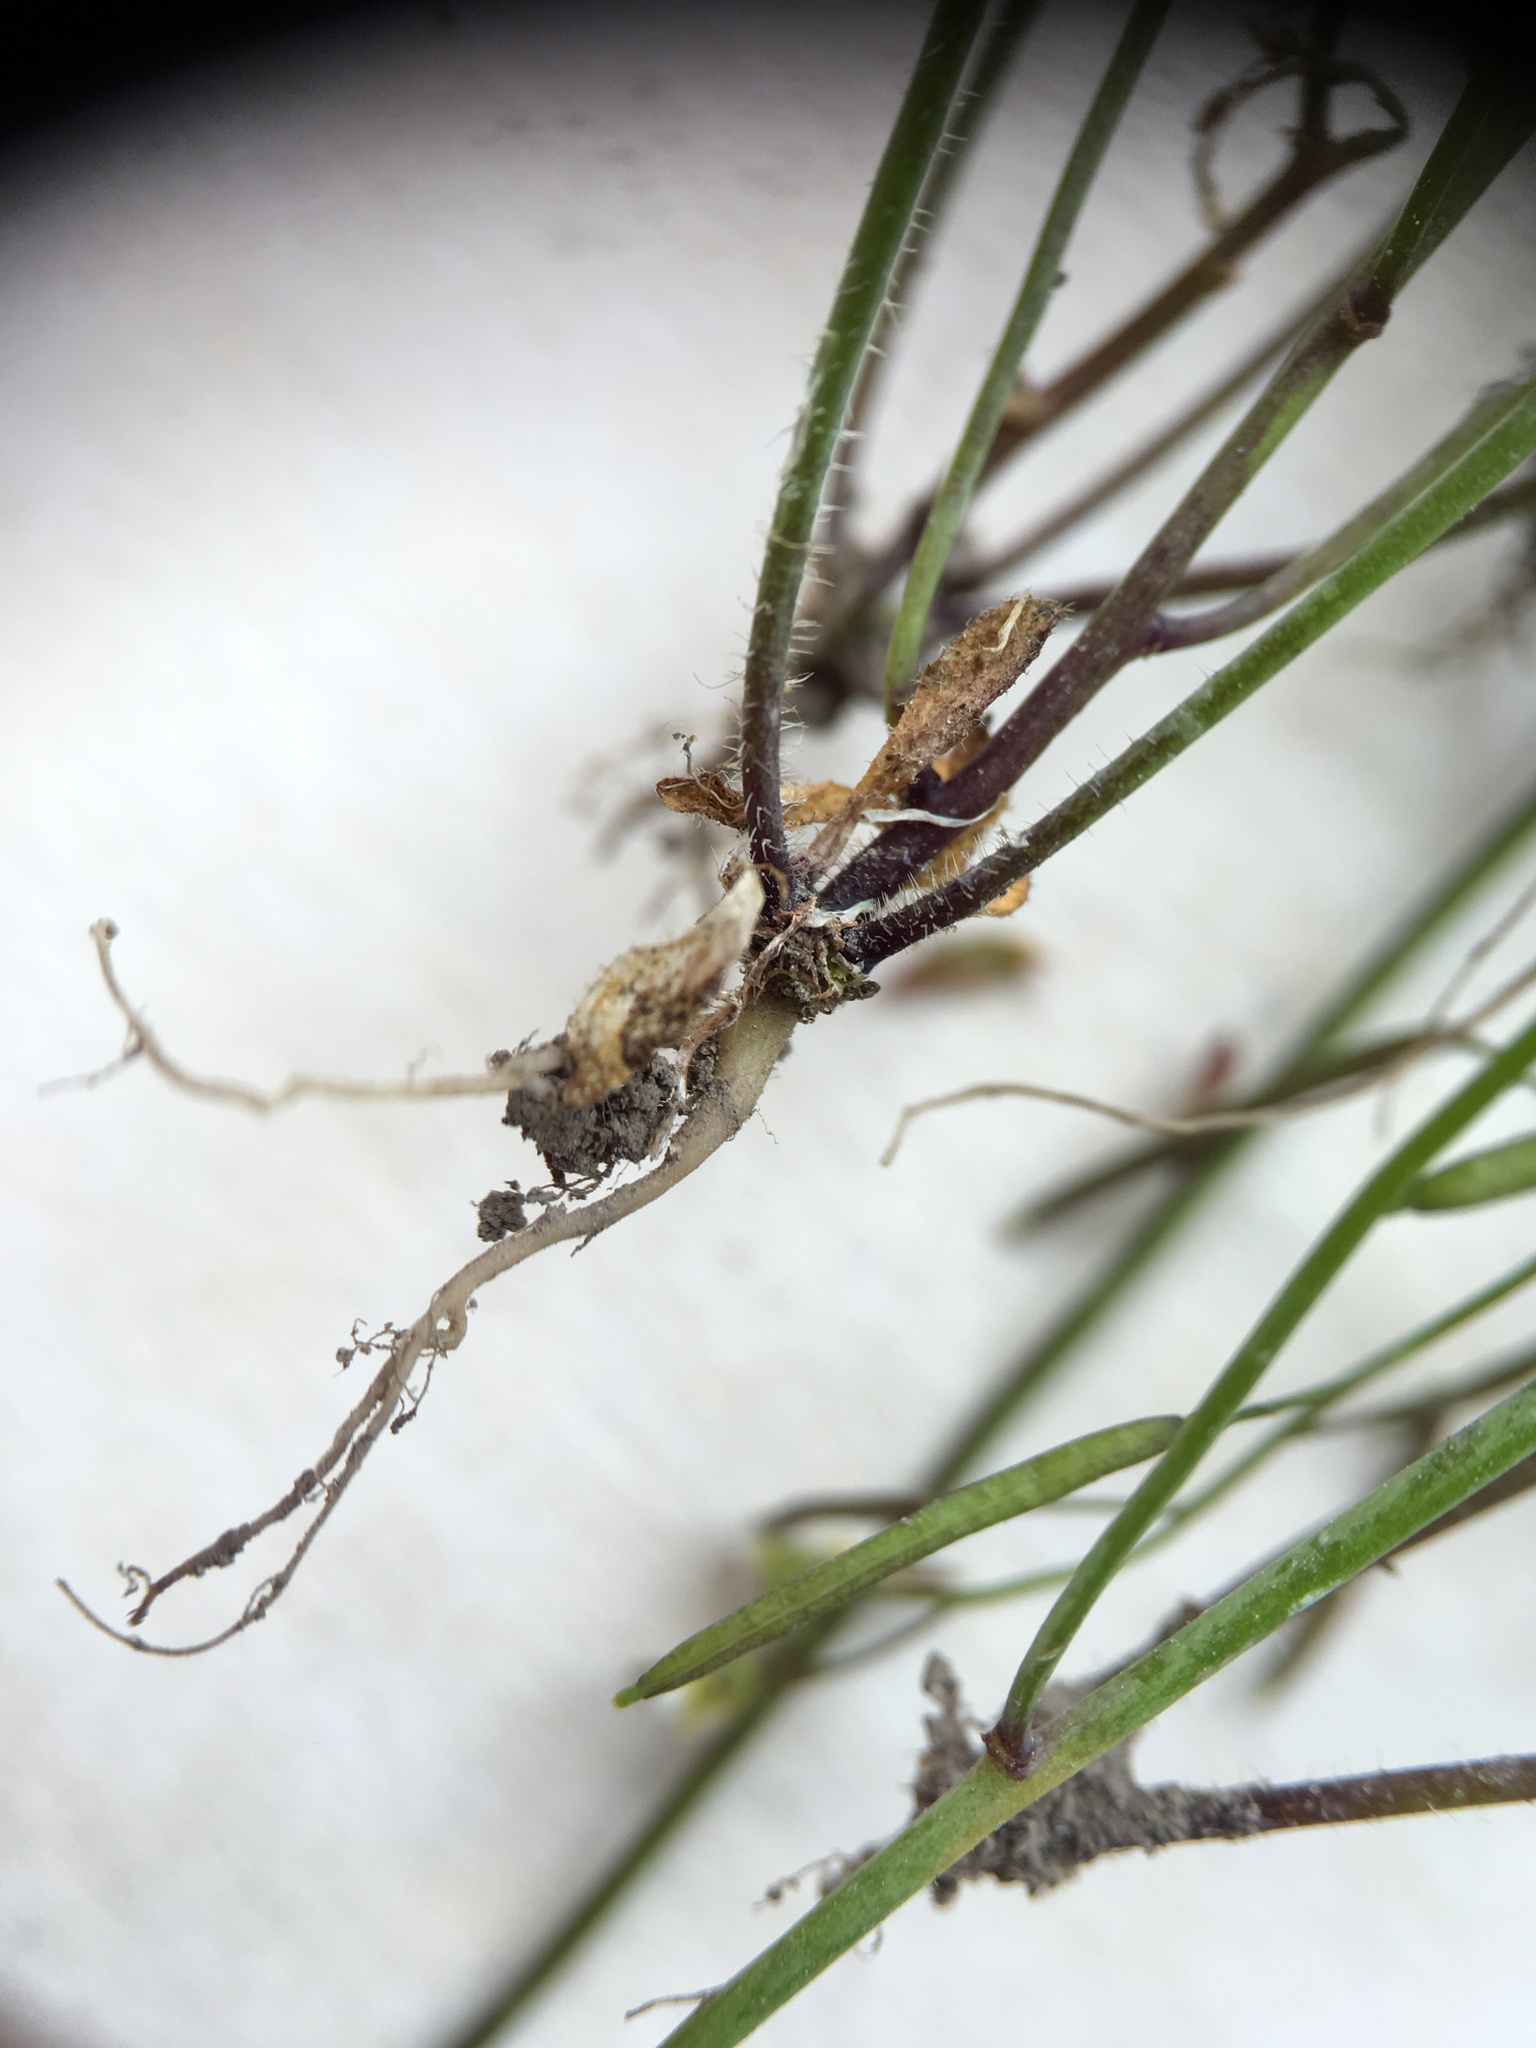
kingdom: Plantae
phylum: Tracheophyta
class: Magnoliopsida
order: Brassicales
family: Brassicaceae
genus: Arabidopsis
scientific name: Arabidopsis thaliana
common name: Thale cress
